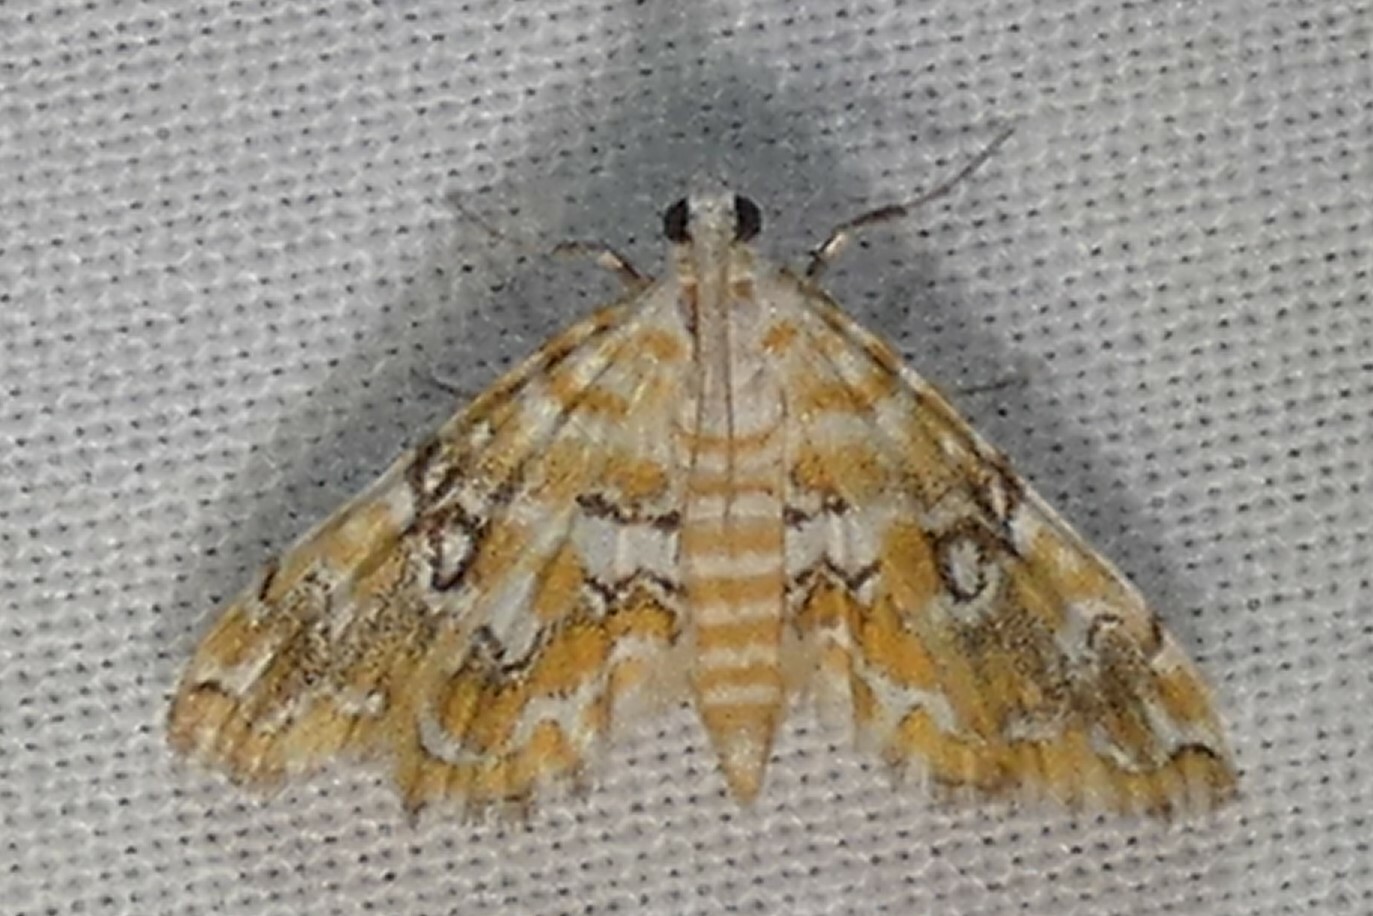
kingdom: Animalia
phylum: Arthropoda
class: Insecta
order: Lepidoptera
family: Crambidae
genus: Elophila
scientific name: Elophila icciusalis
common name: Pondside pyralid moth
